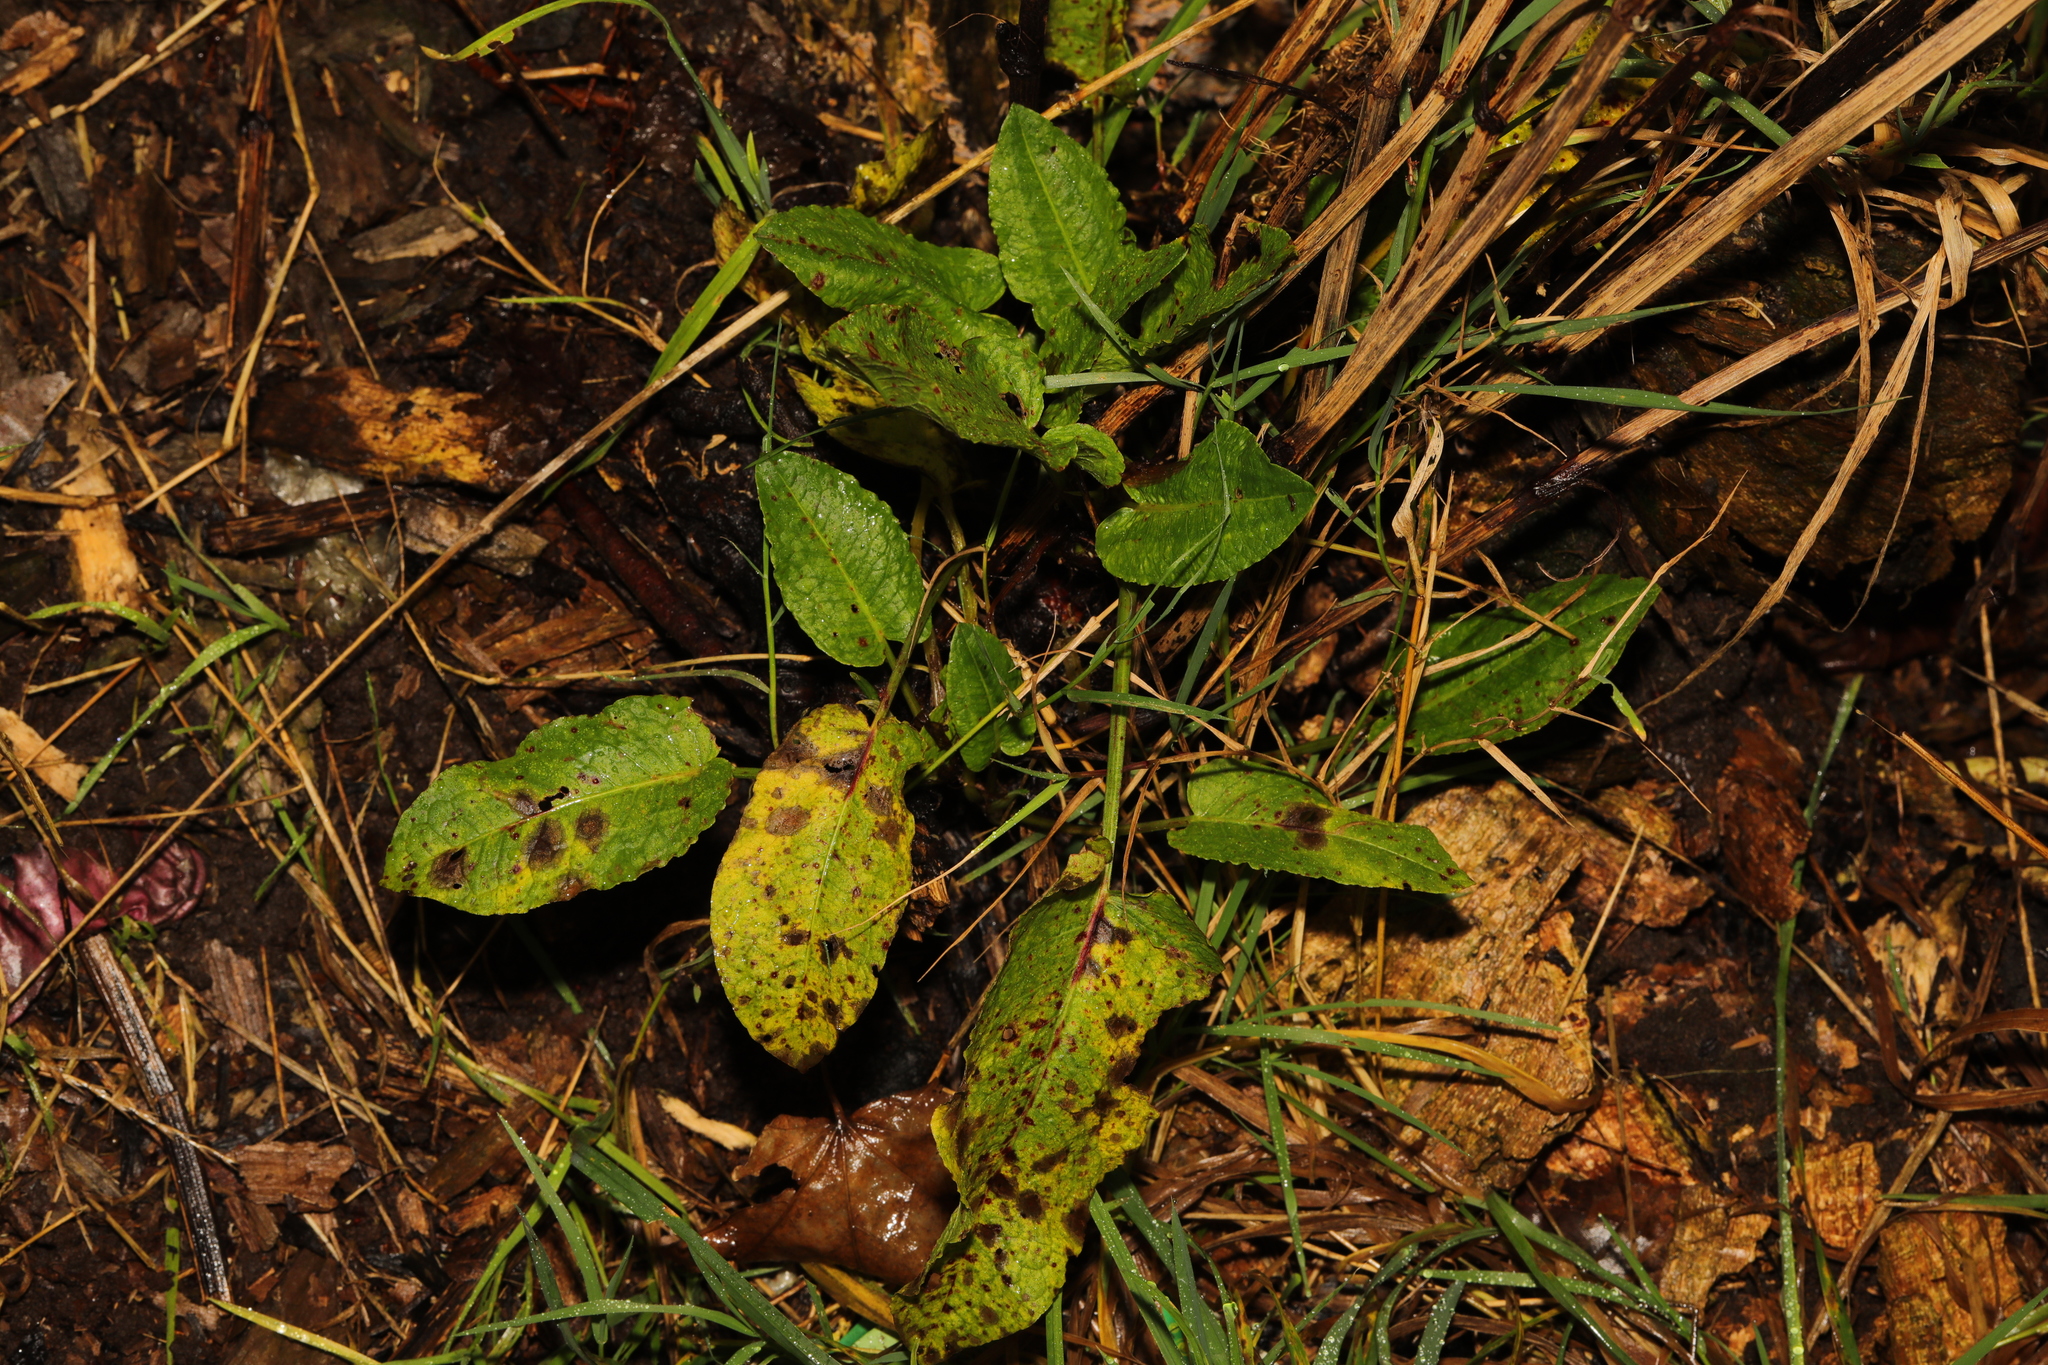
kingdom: Plantae
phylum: Tracheophyta
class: Magnoliopsida
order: Caryophyllales
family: Polygonaceae
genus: Rumex
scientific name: Rumex obtusifolius
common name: Bitter dock
